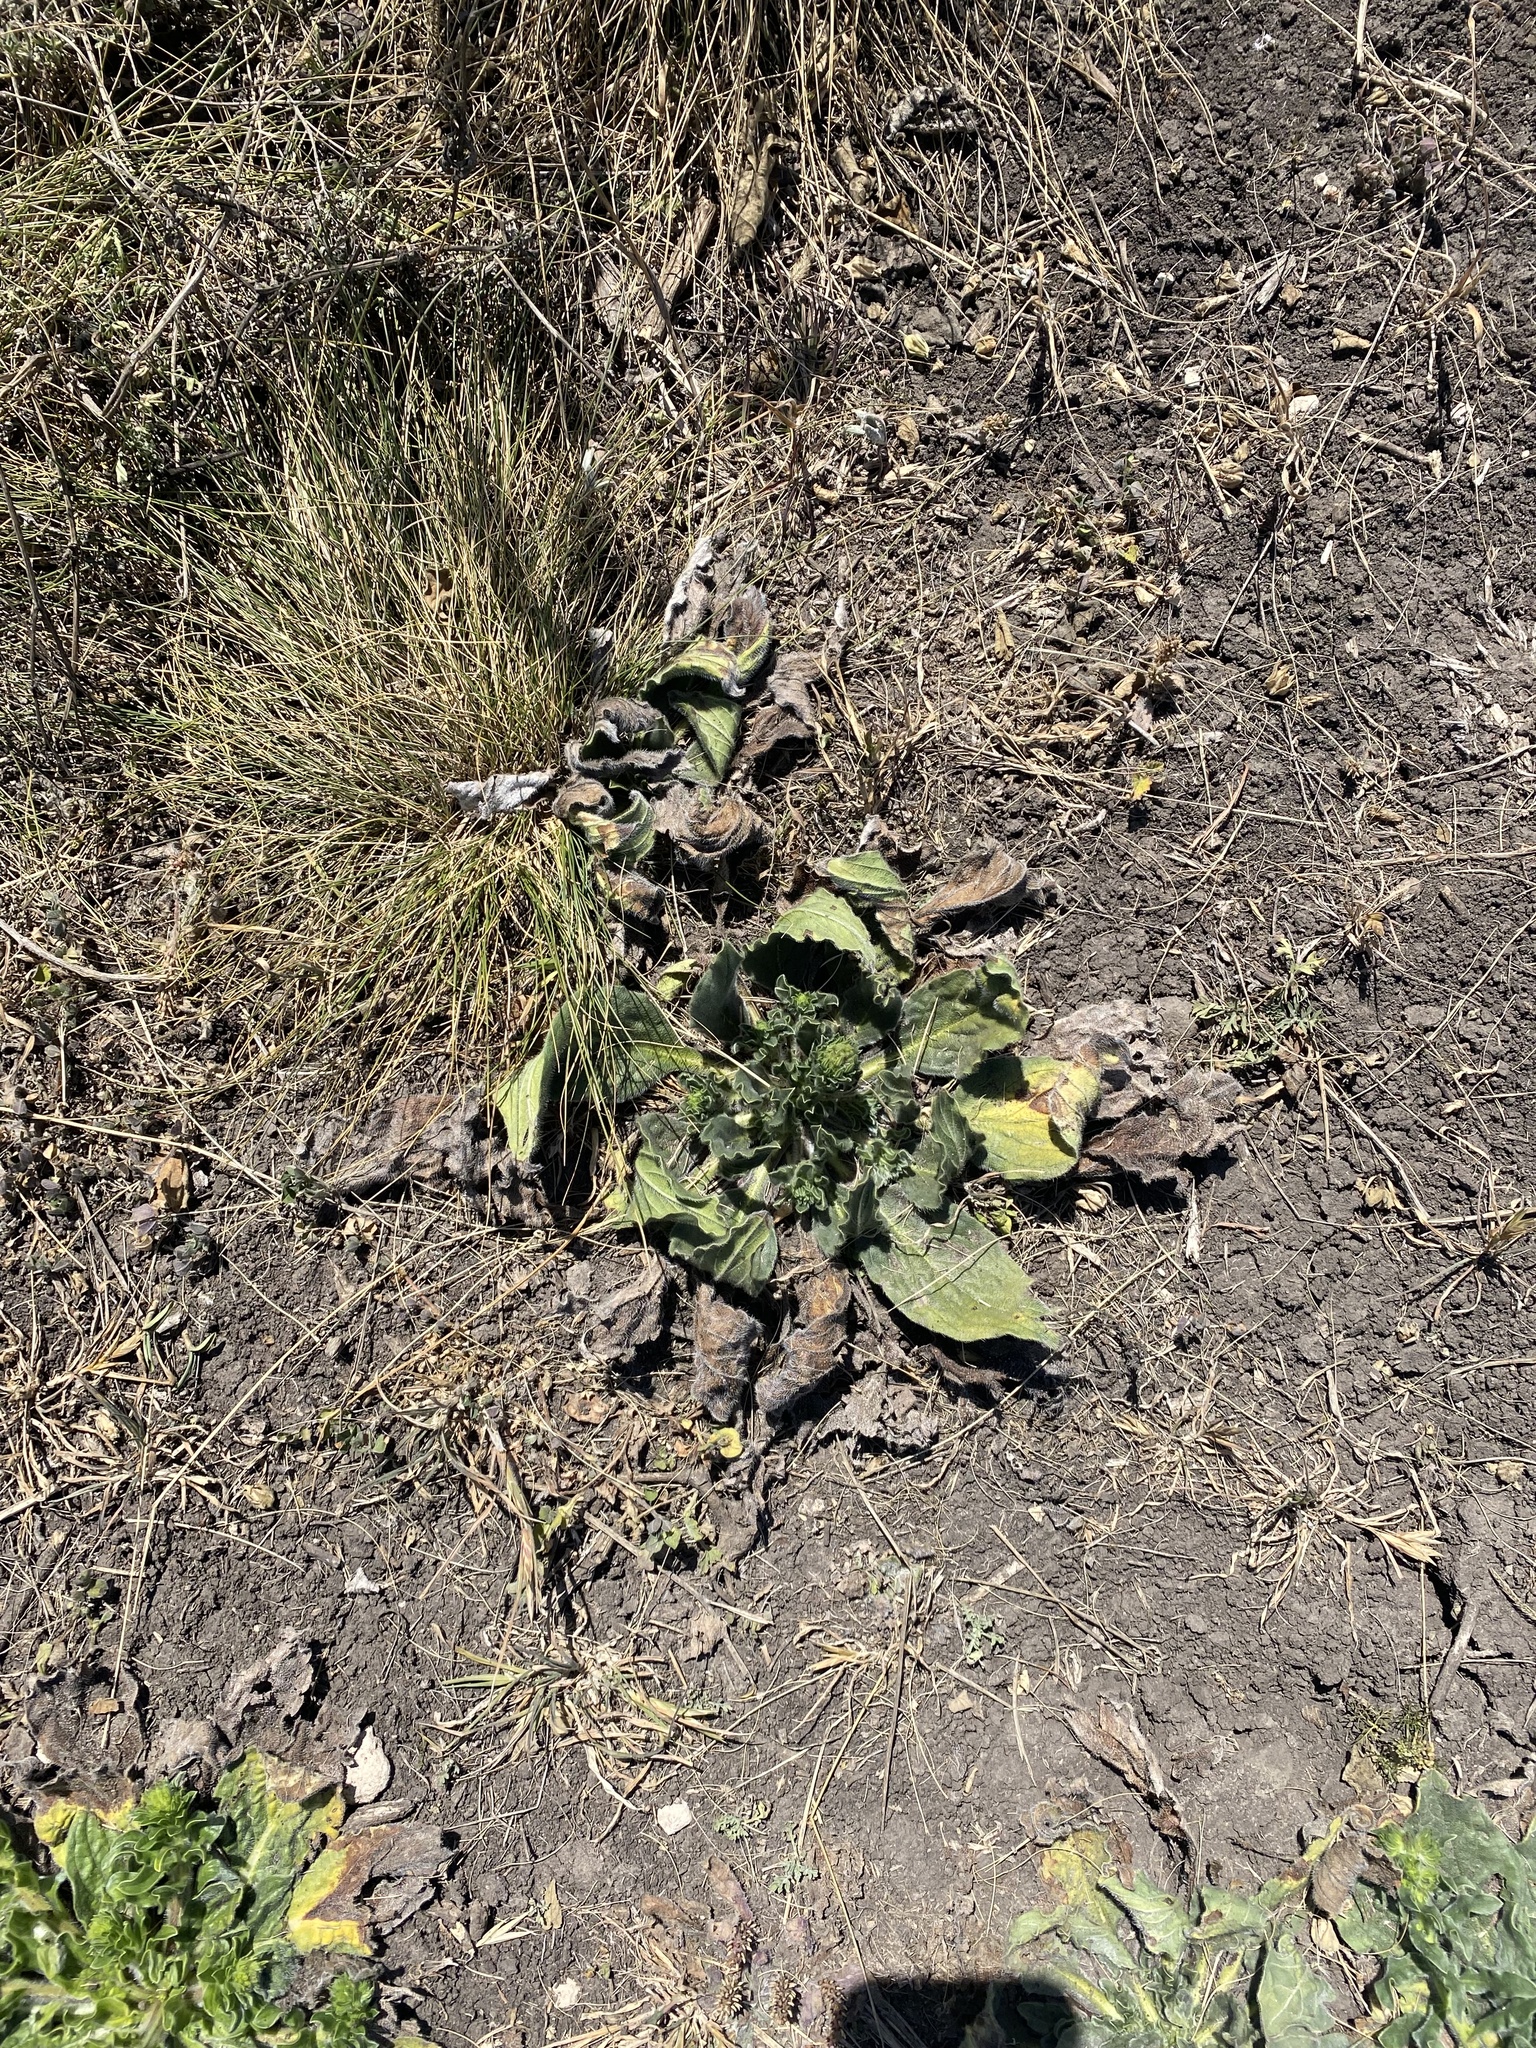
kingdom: Plantae
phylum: Tracheophyta
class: Magnoliopsida
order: Boraginales
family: Boraginaceae
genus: Echium
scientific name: Echium plantagineum
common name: Purple viper's-bugloss
